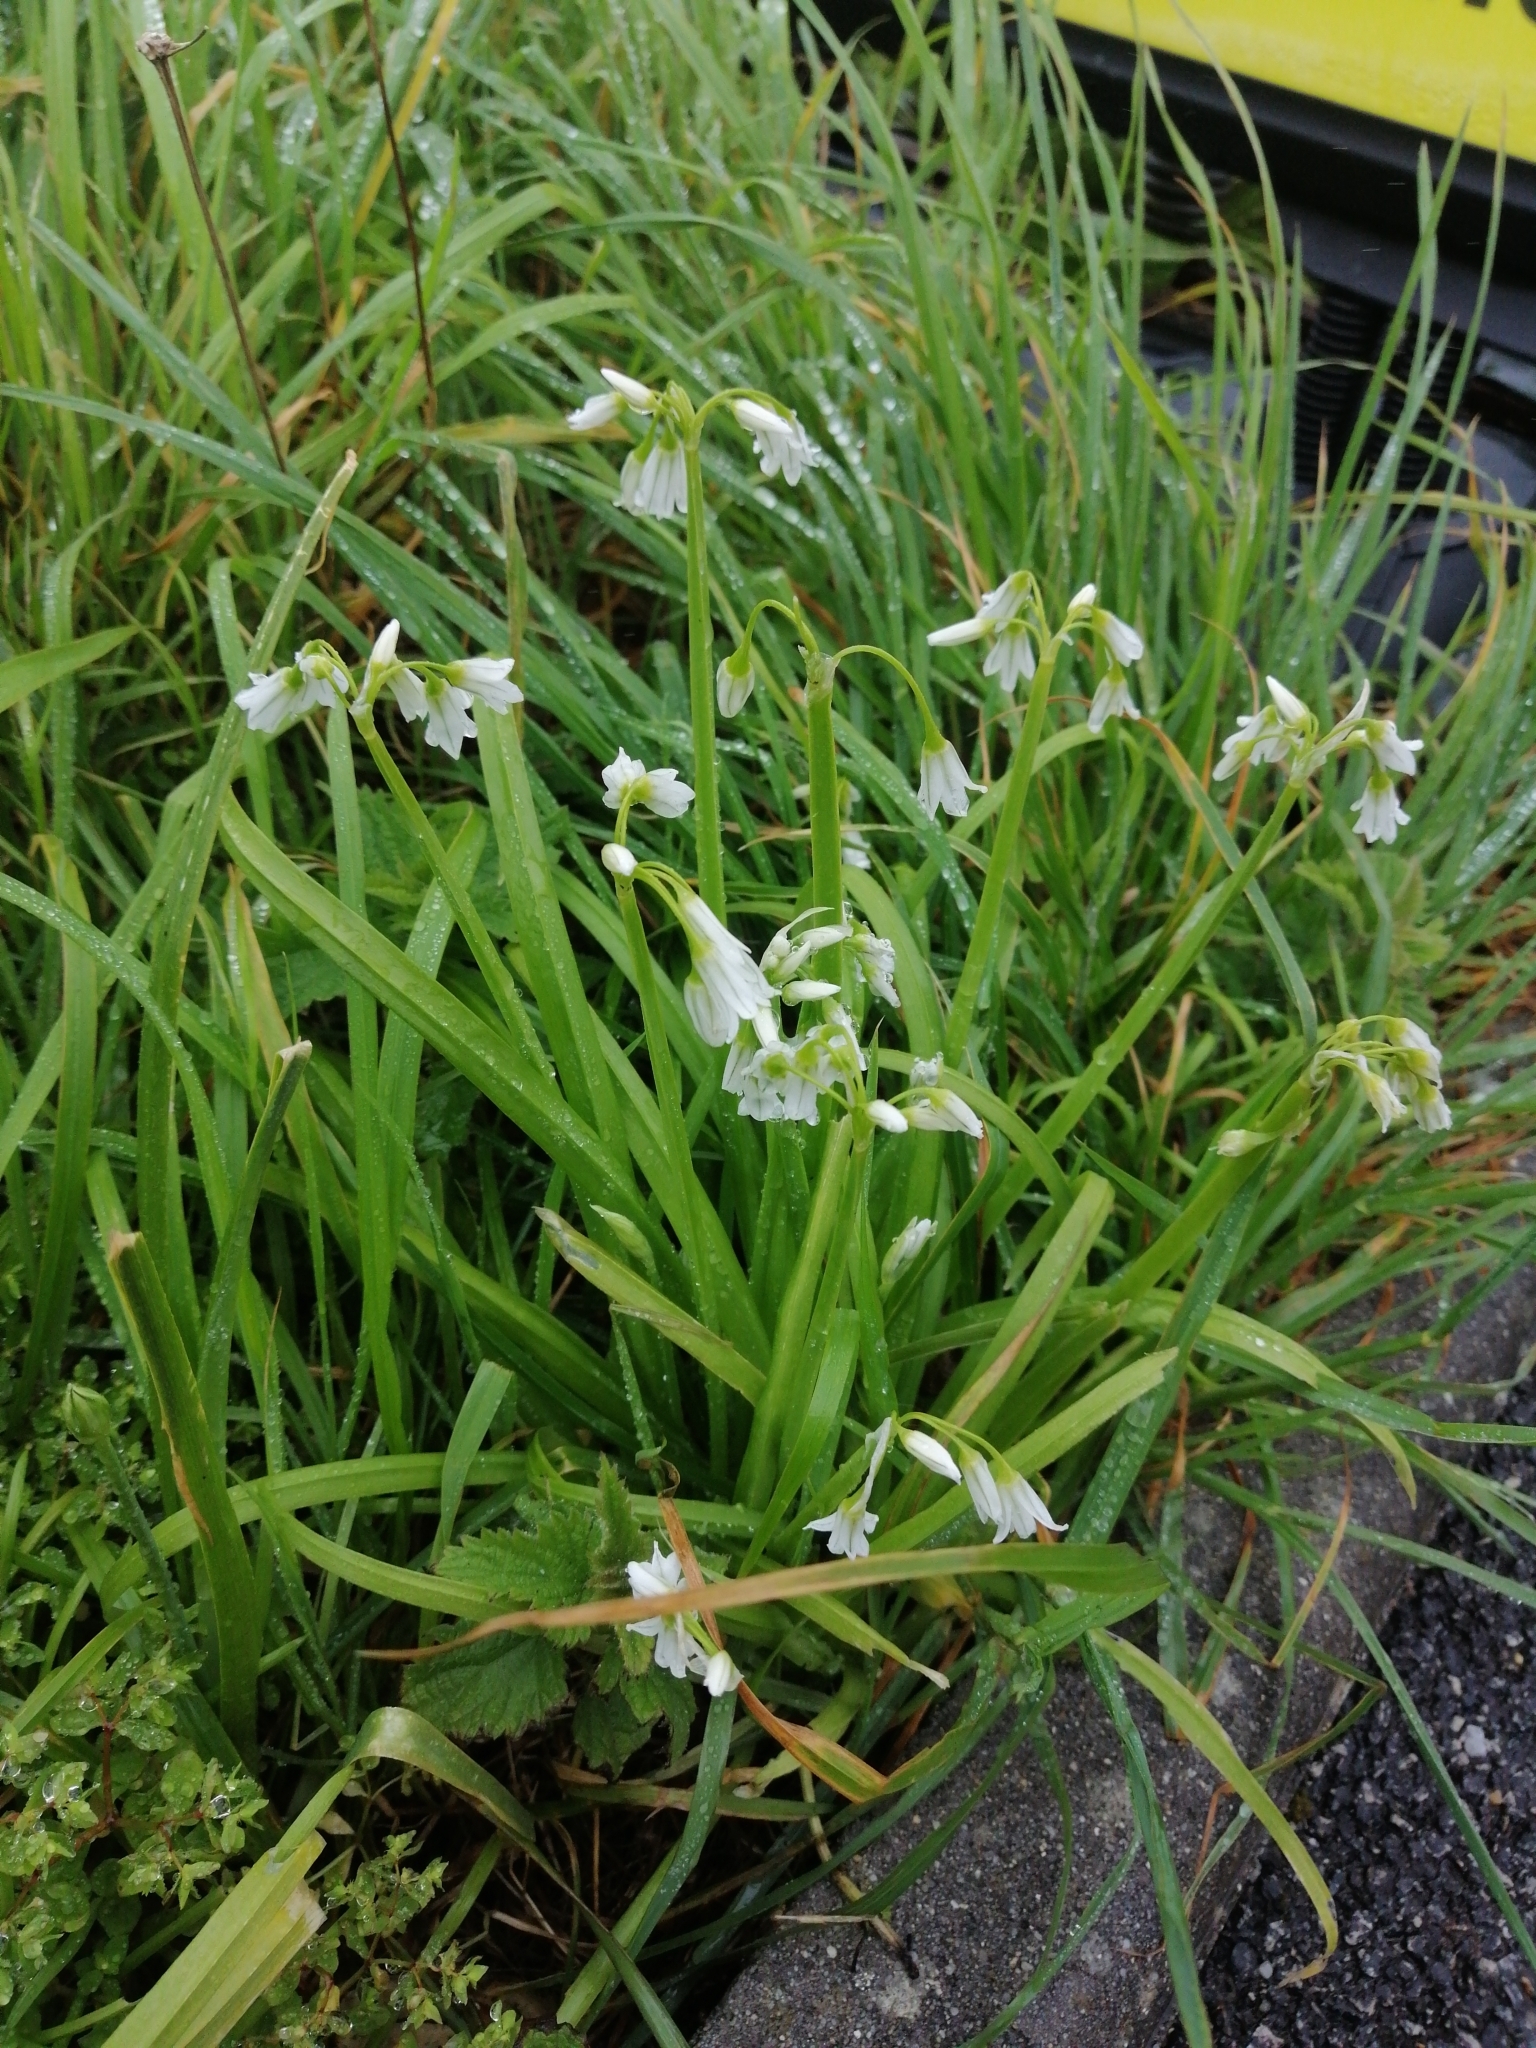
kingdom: Plantae
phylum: Tracheophyta
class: Liliopsida
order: Asparagales
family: Amaryllidaceae
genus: Allium
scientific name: Allium triquetrum
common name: Three-cornered garlic
